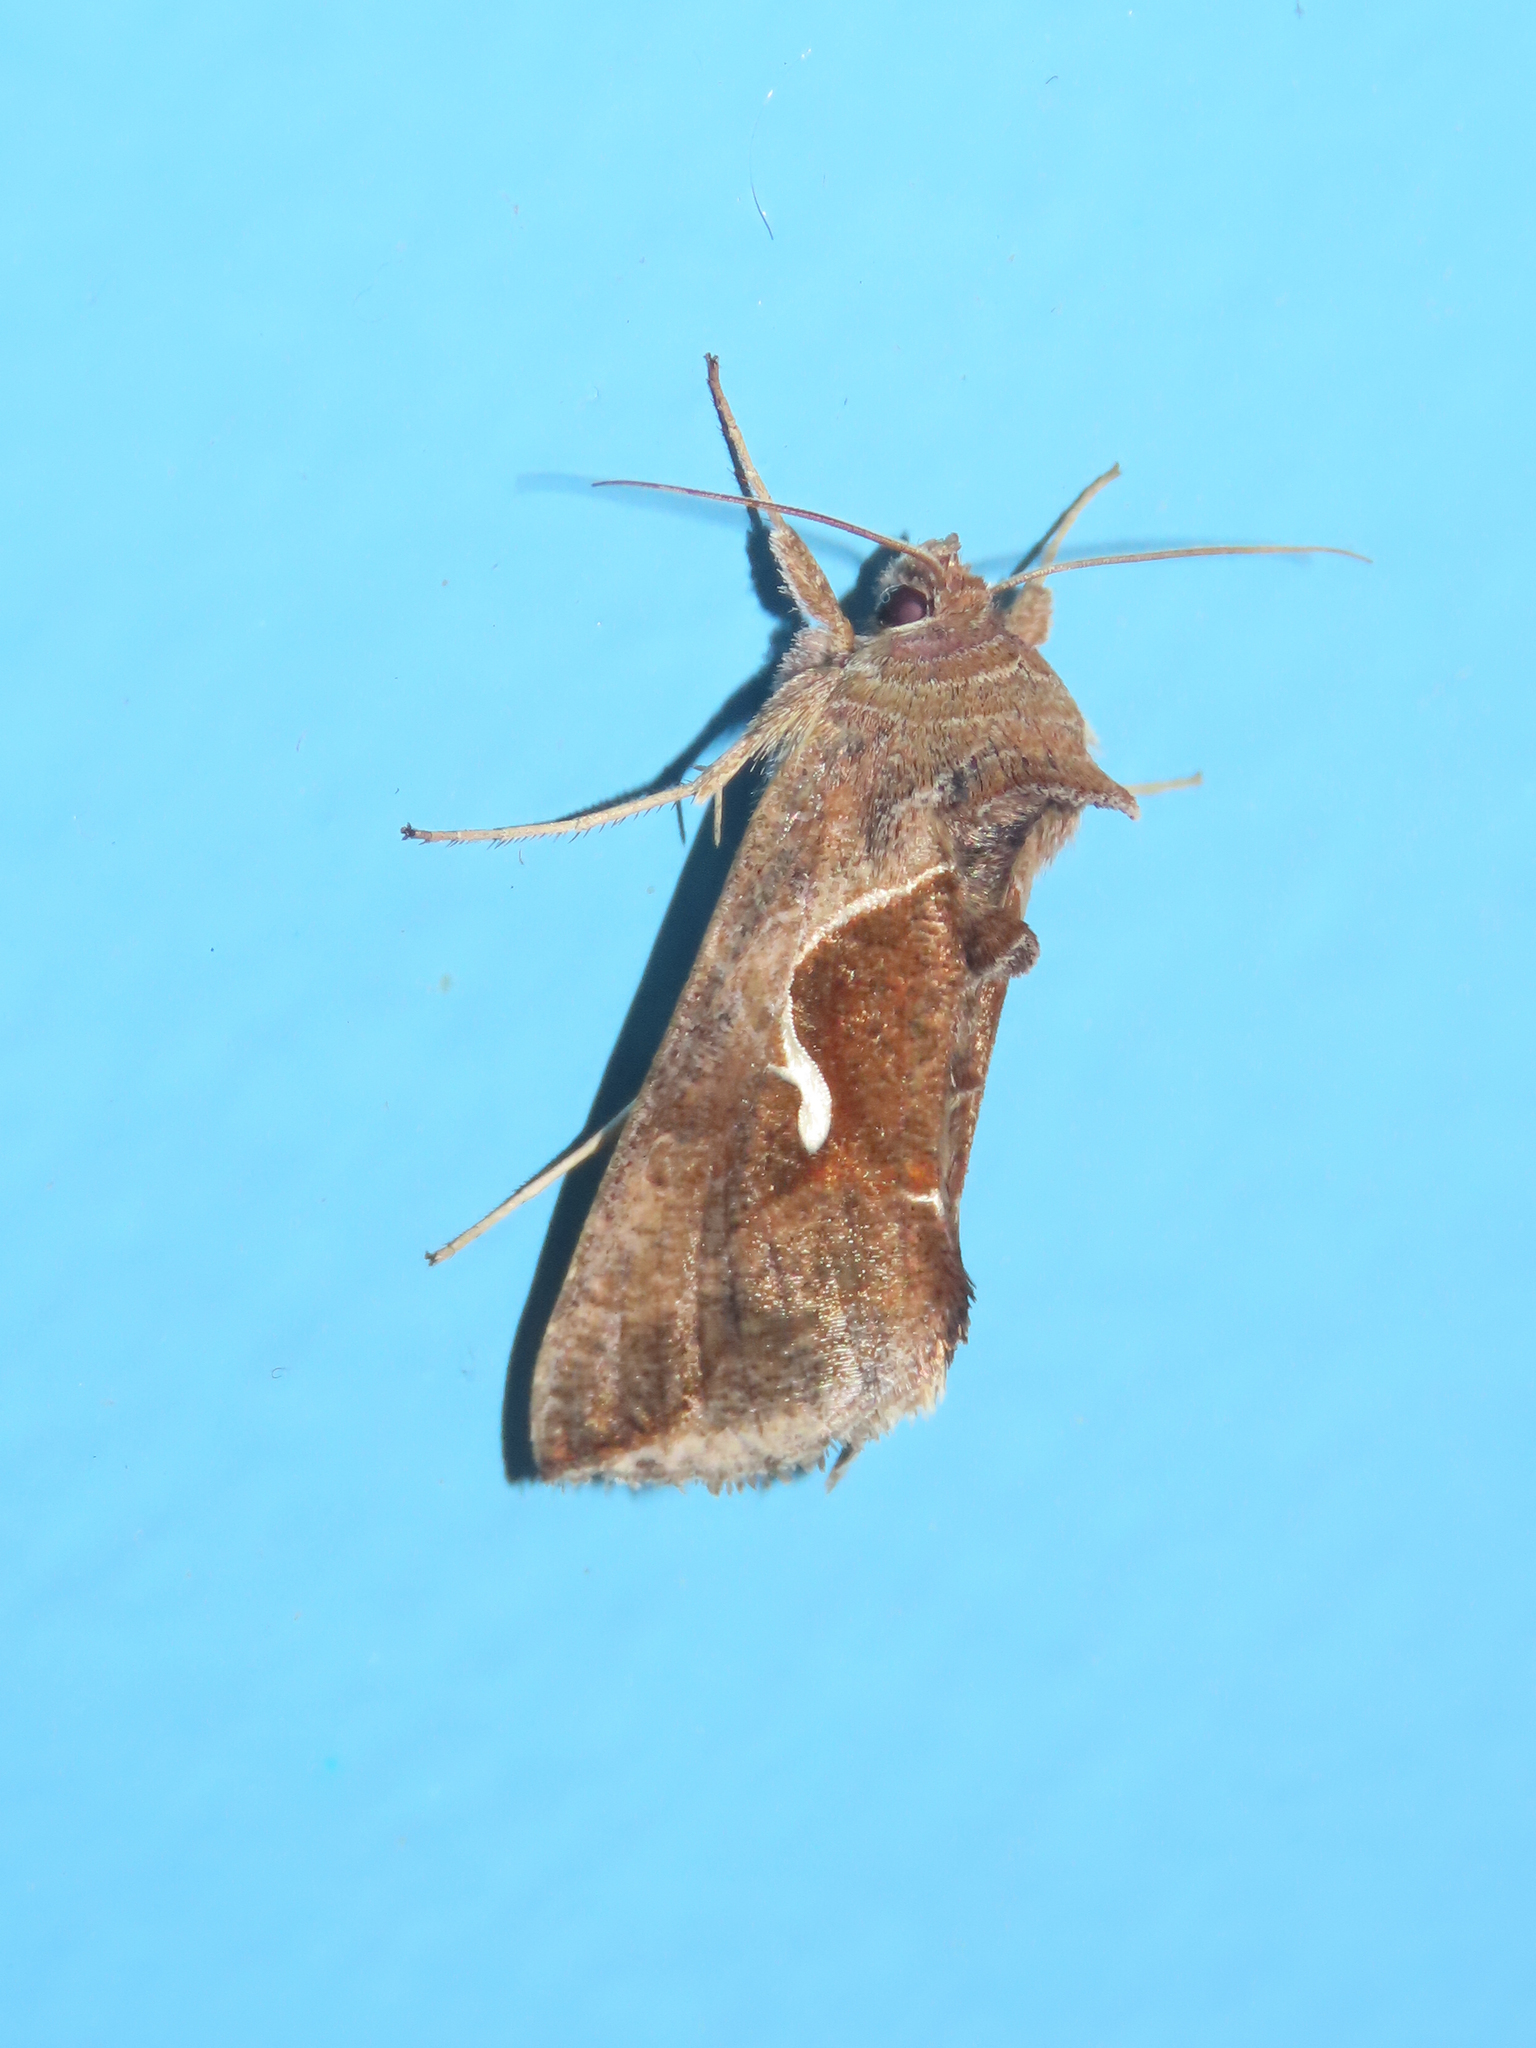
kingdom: Animalia
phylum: Arthropoda
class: Insecta
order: Lepidoptera
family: Noctuidae
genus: Anagrapha
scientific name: Anagrapha falcifera
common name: Celery looper
